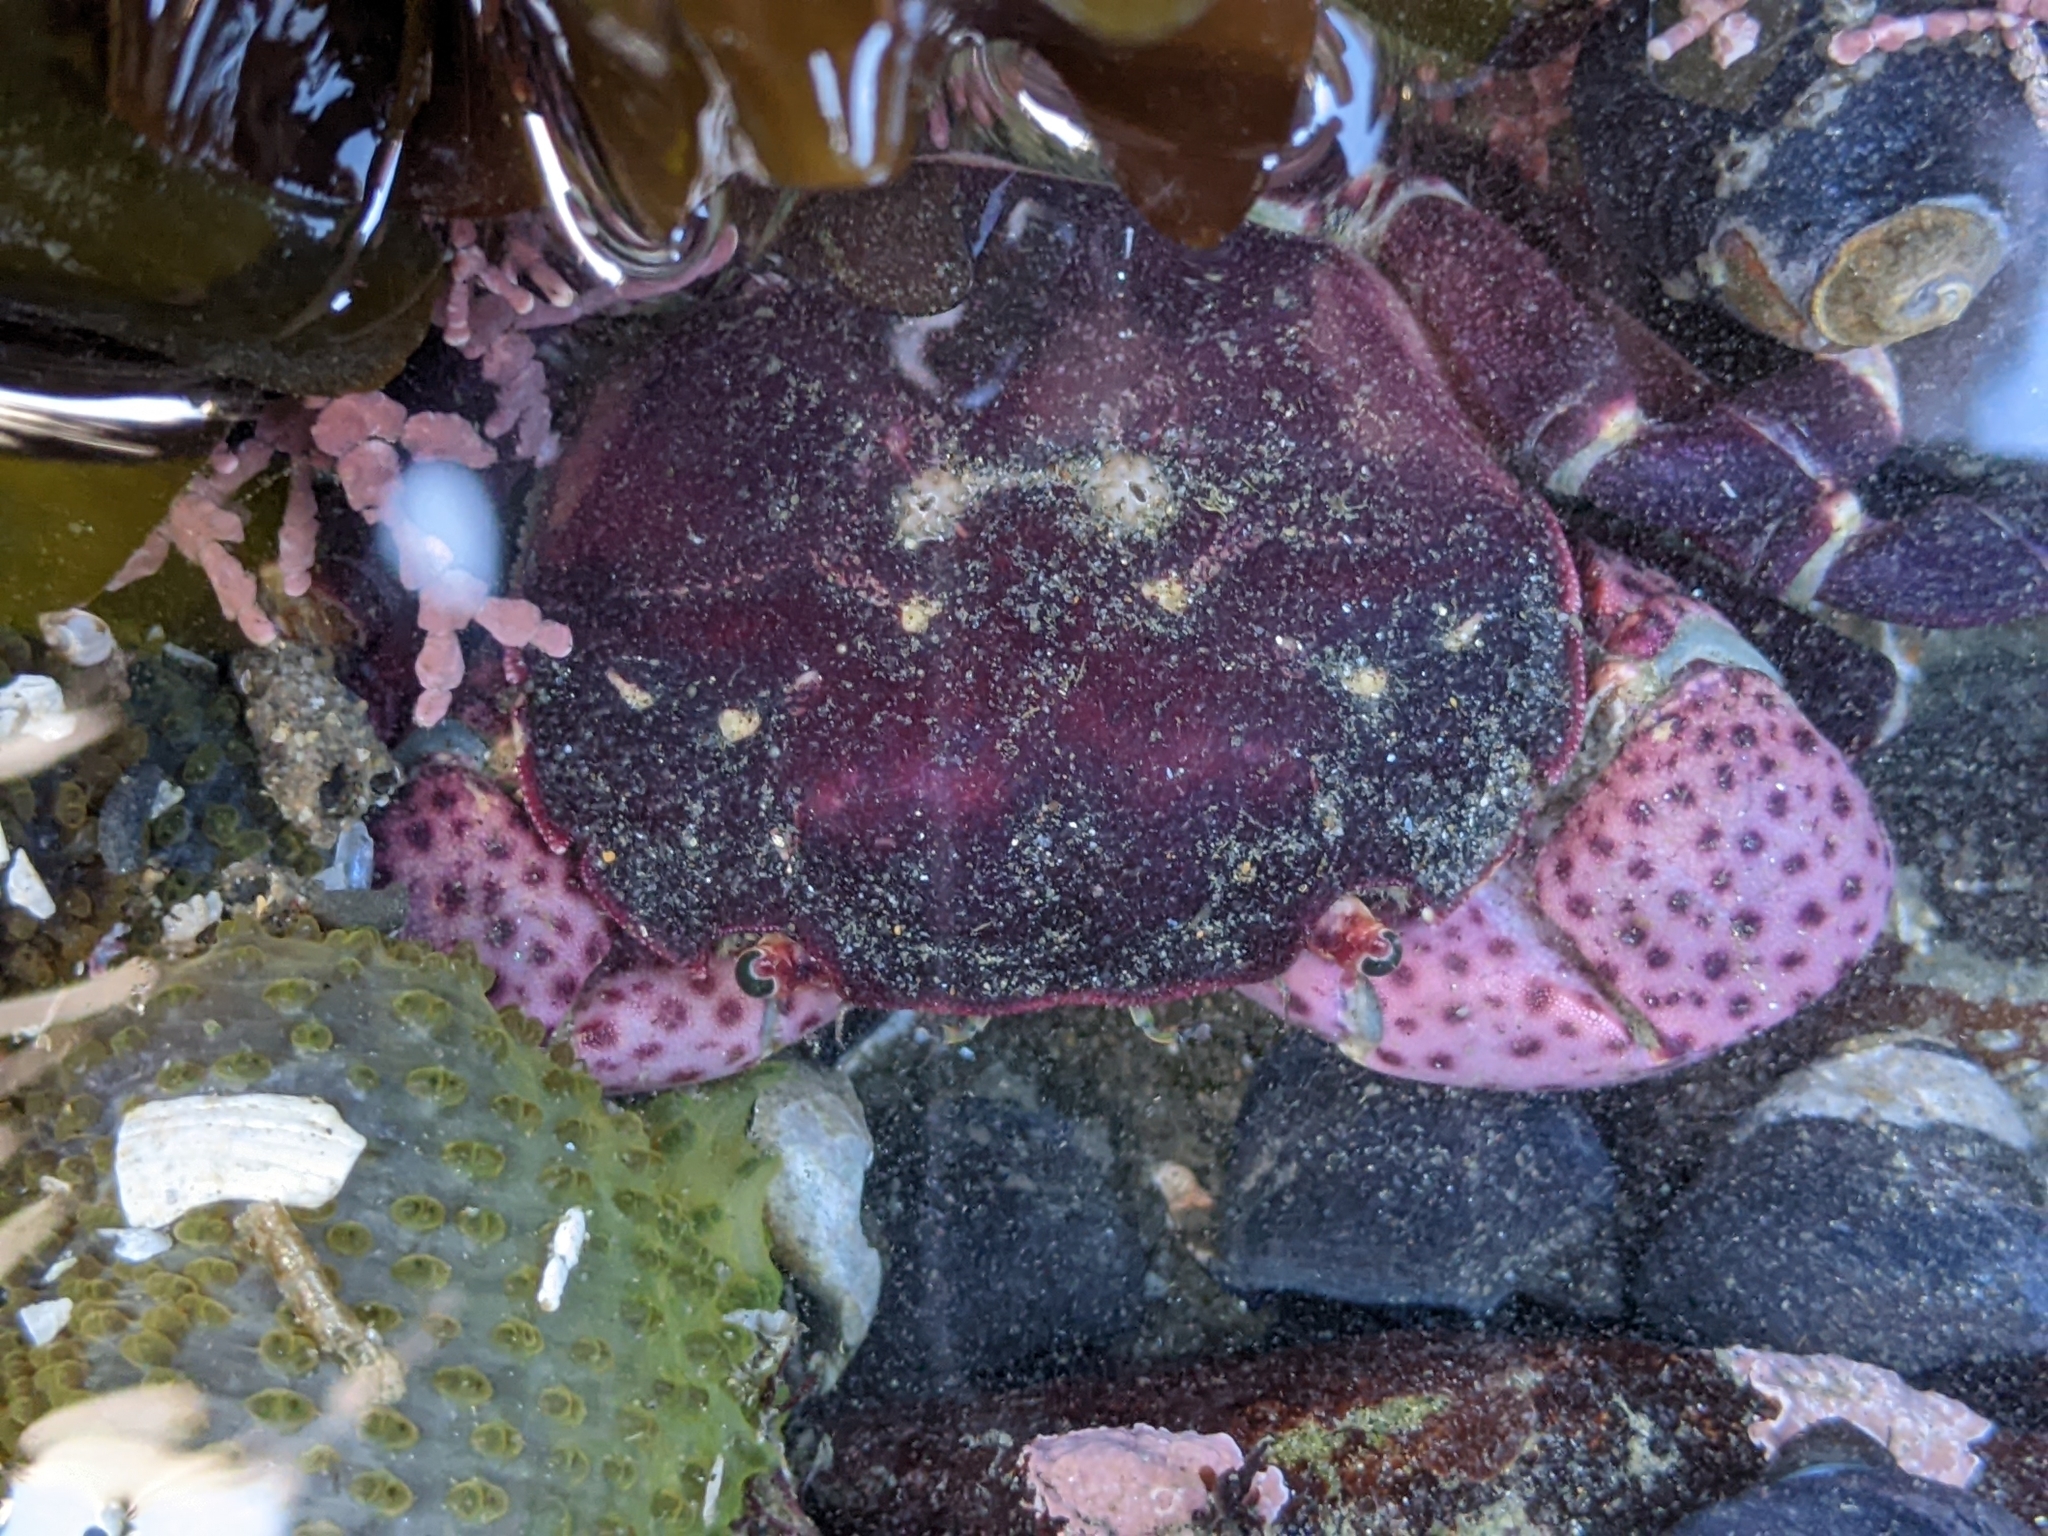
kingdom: Animalia
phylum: Arthropoda
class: Malacostraca
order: Decapoda
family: Varunidae
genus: Hemigrapsus
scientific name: Hemigrapsus nudus
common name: Purple shore crab
